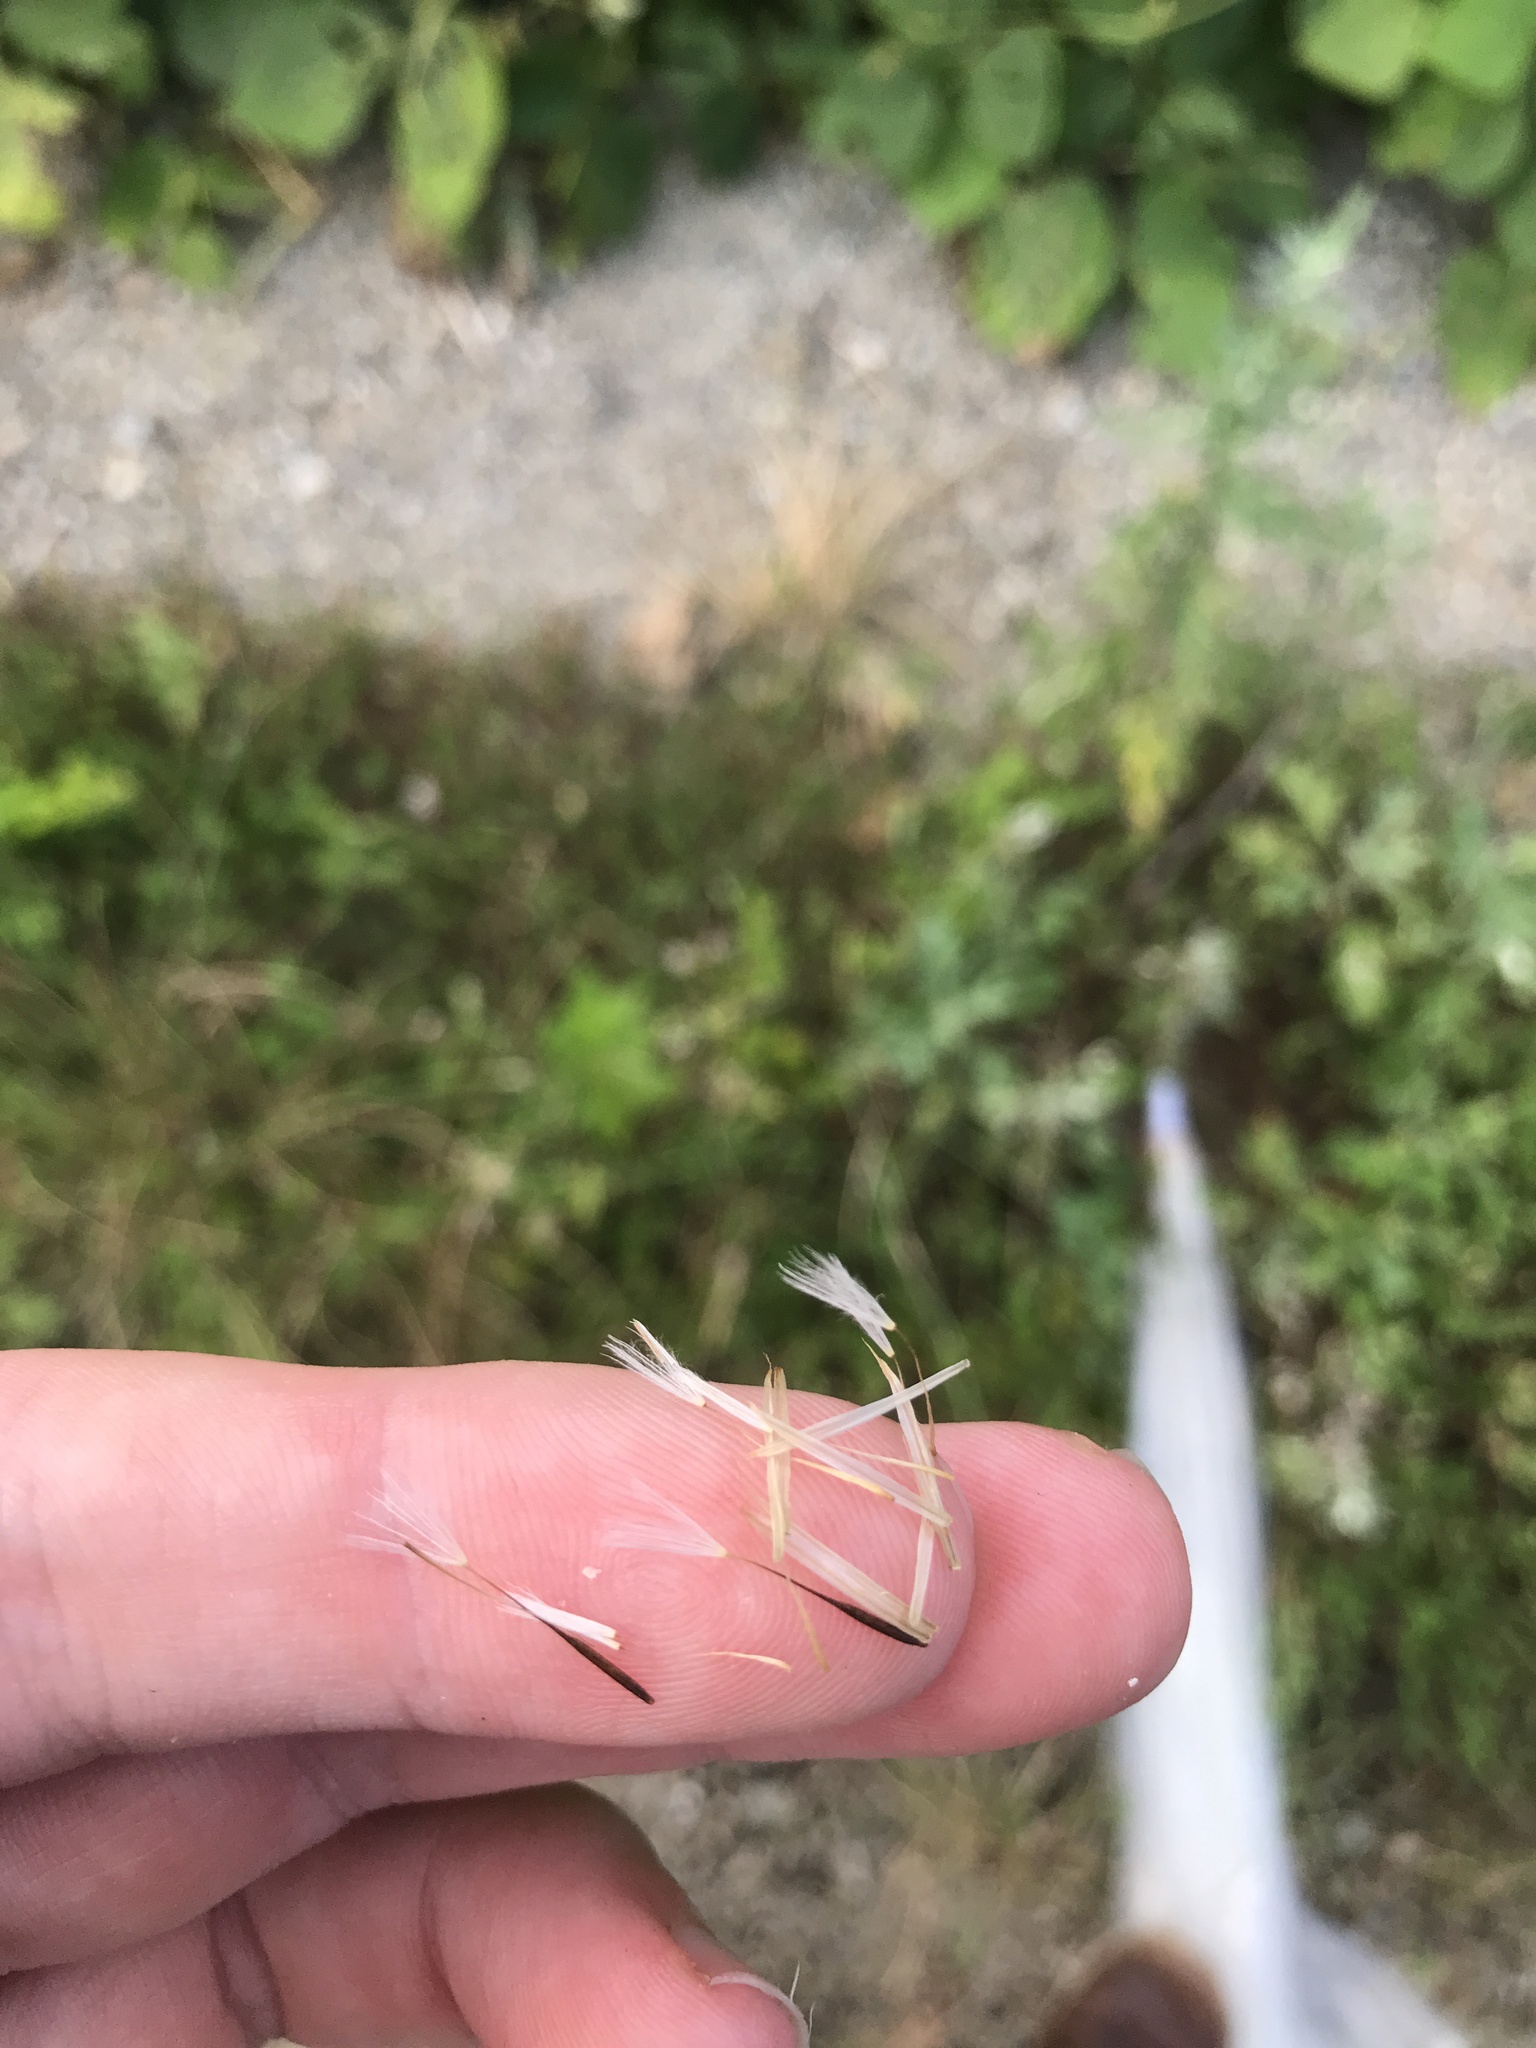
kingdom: Plantae
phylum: Tracheophyta
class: Magnoliopsida
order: Asterales
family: Asteraceae
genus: Hypochaeris
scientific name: Hypochaeris chillensis
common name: Brazilian cat's ear
